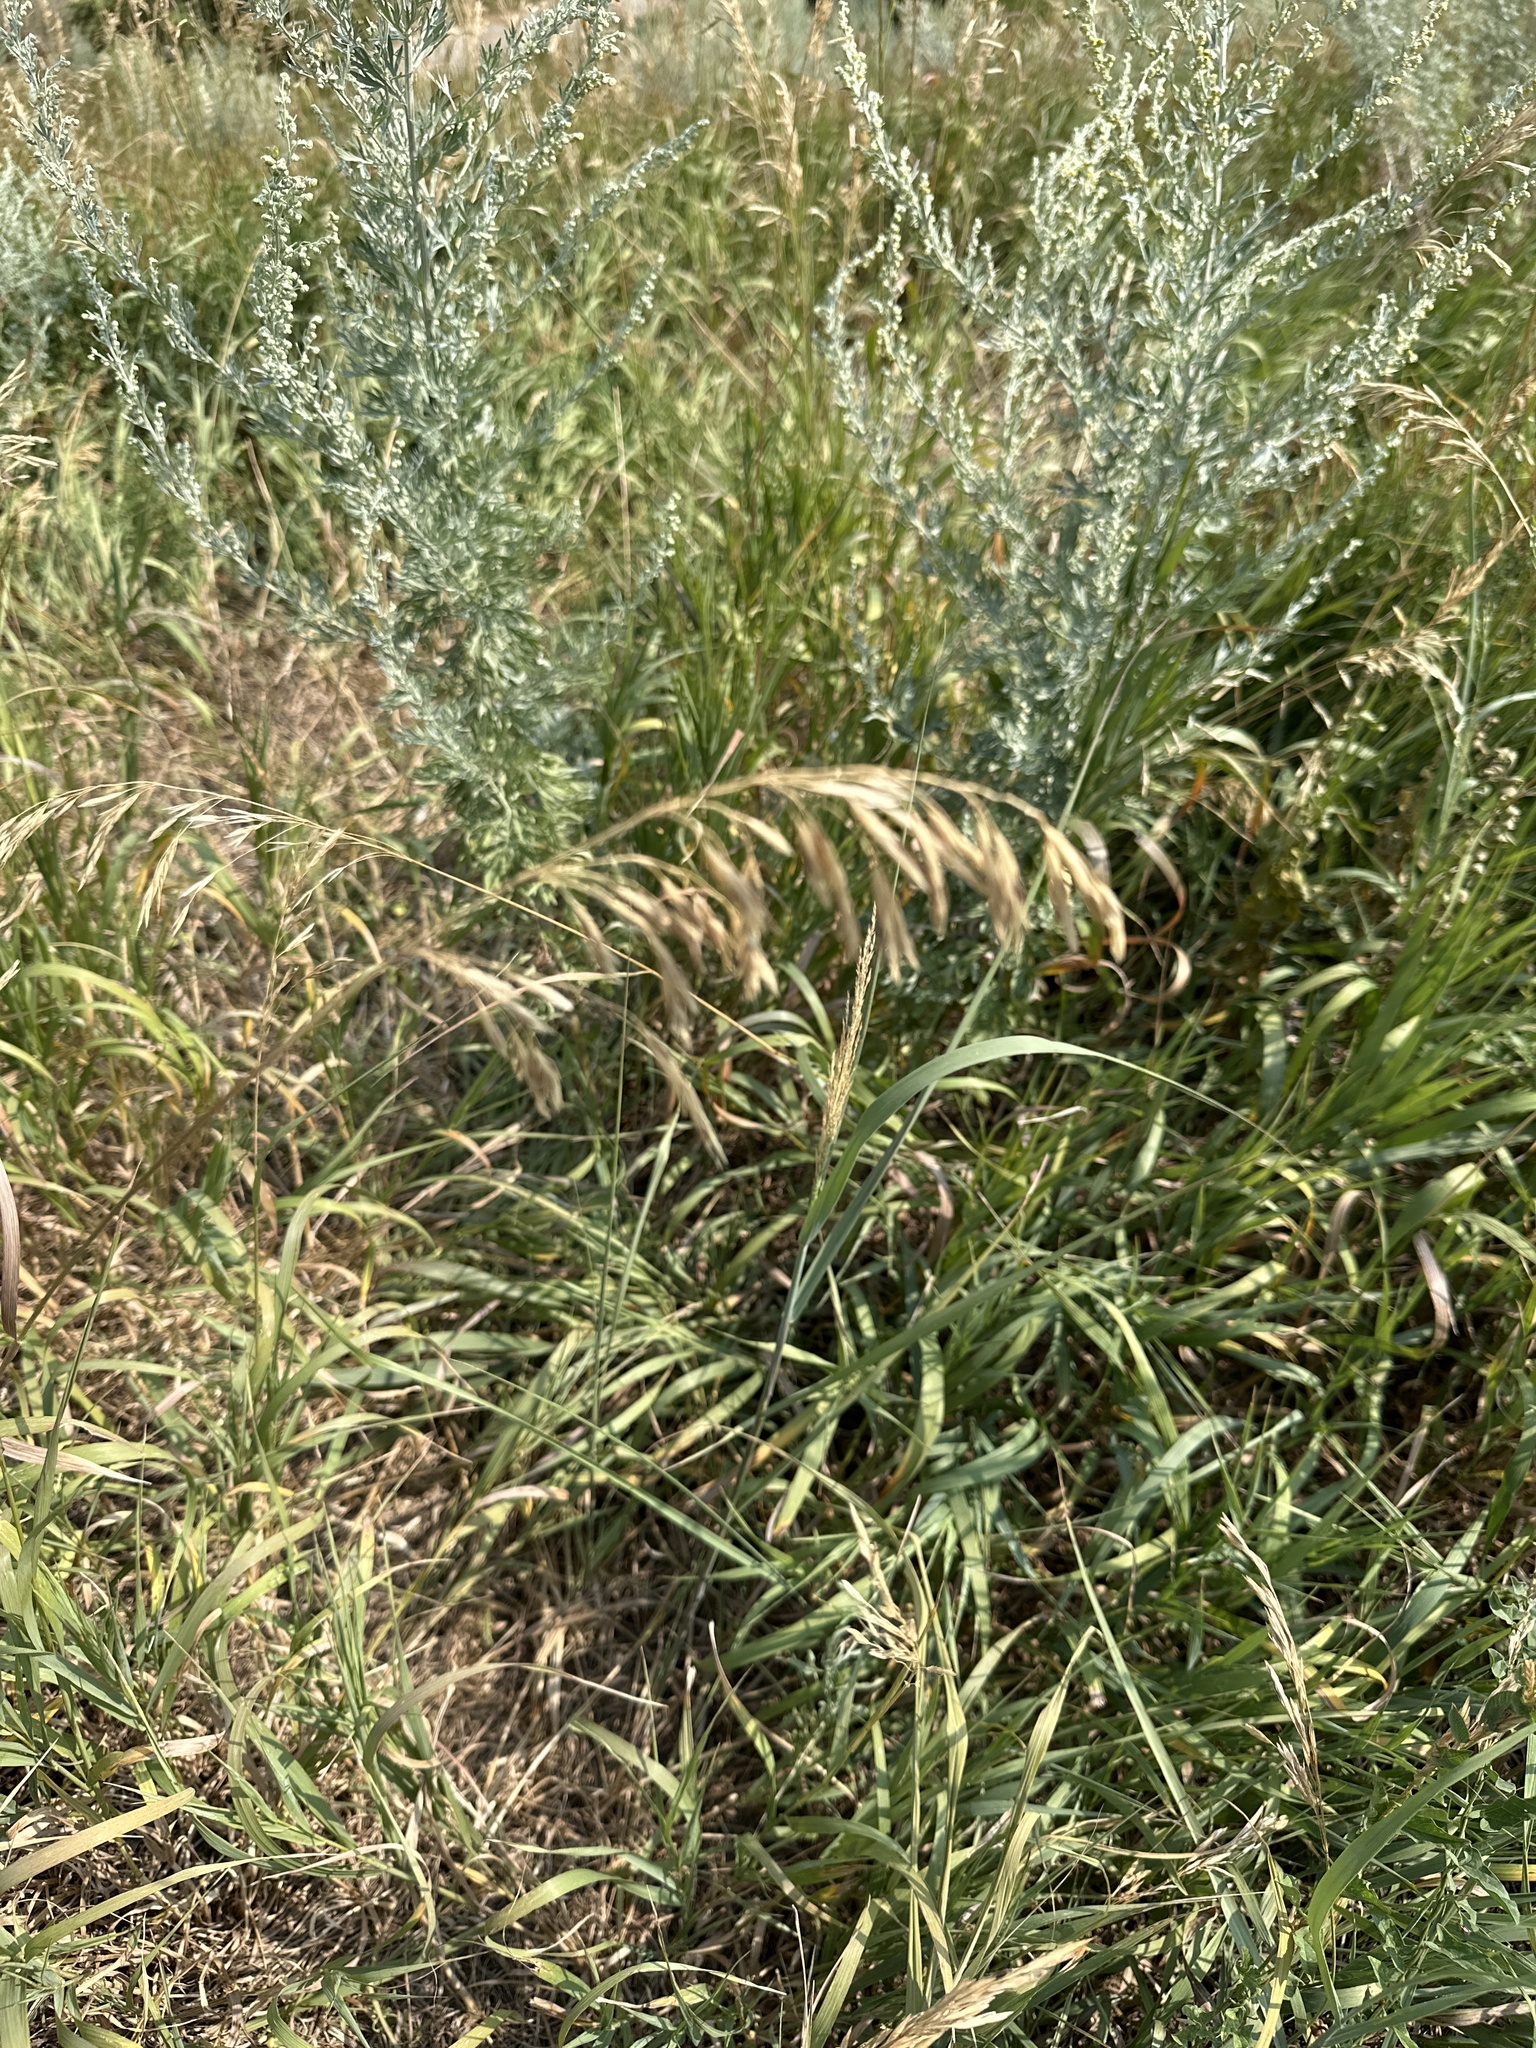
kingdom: Plantae
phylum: Tracheophyta
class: Liliopsida
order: Poales
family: Poaceae
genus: Bromus
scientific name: Bromus inermis
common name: Smooth brome
